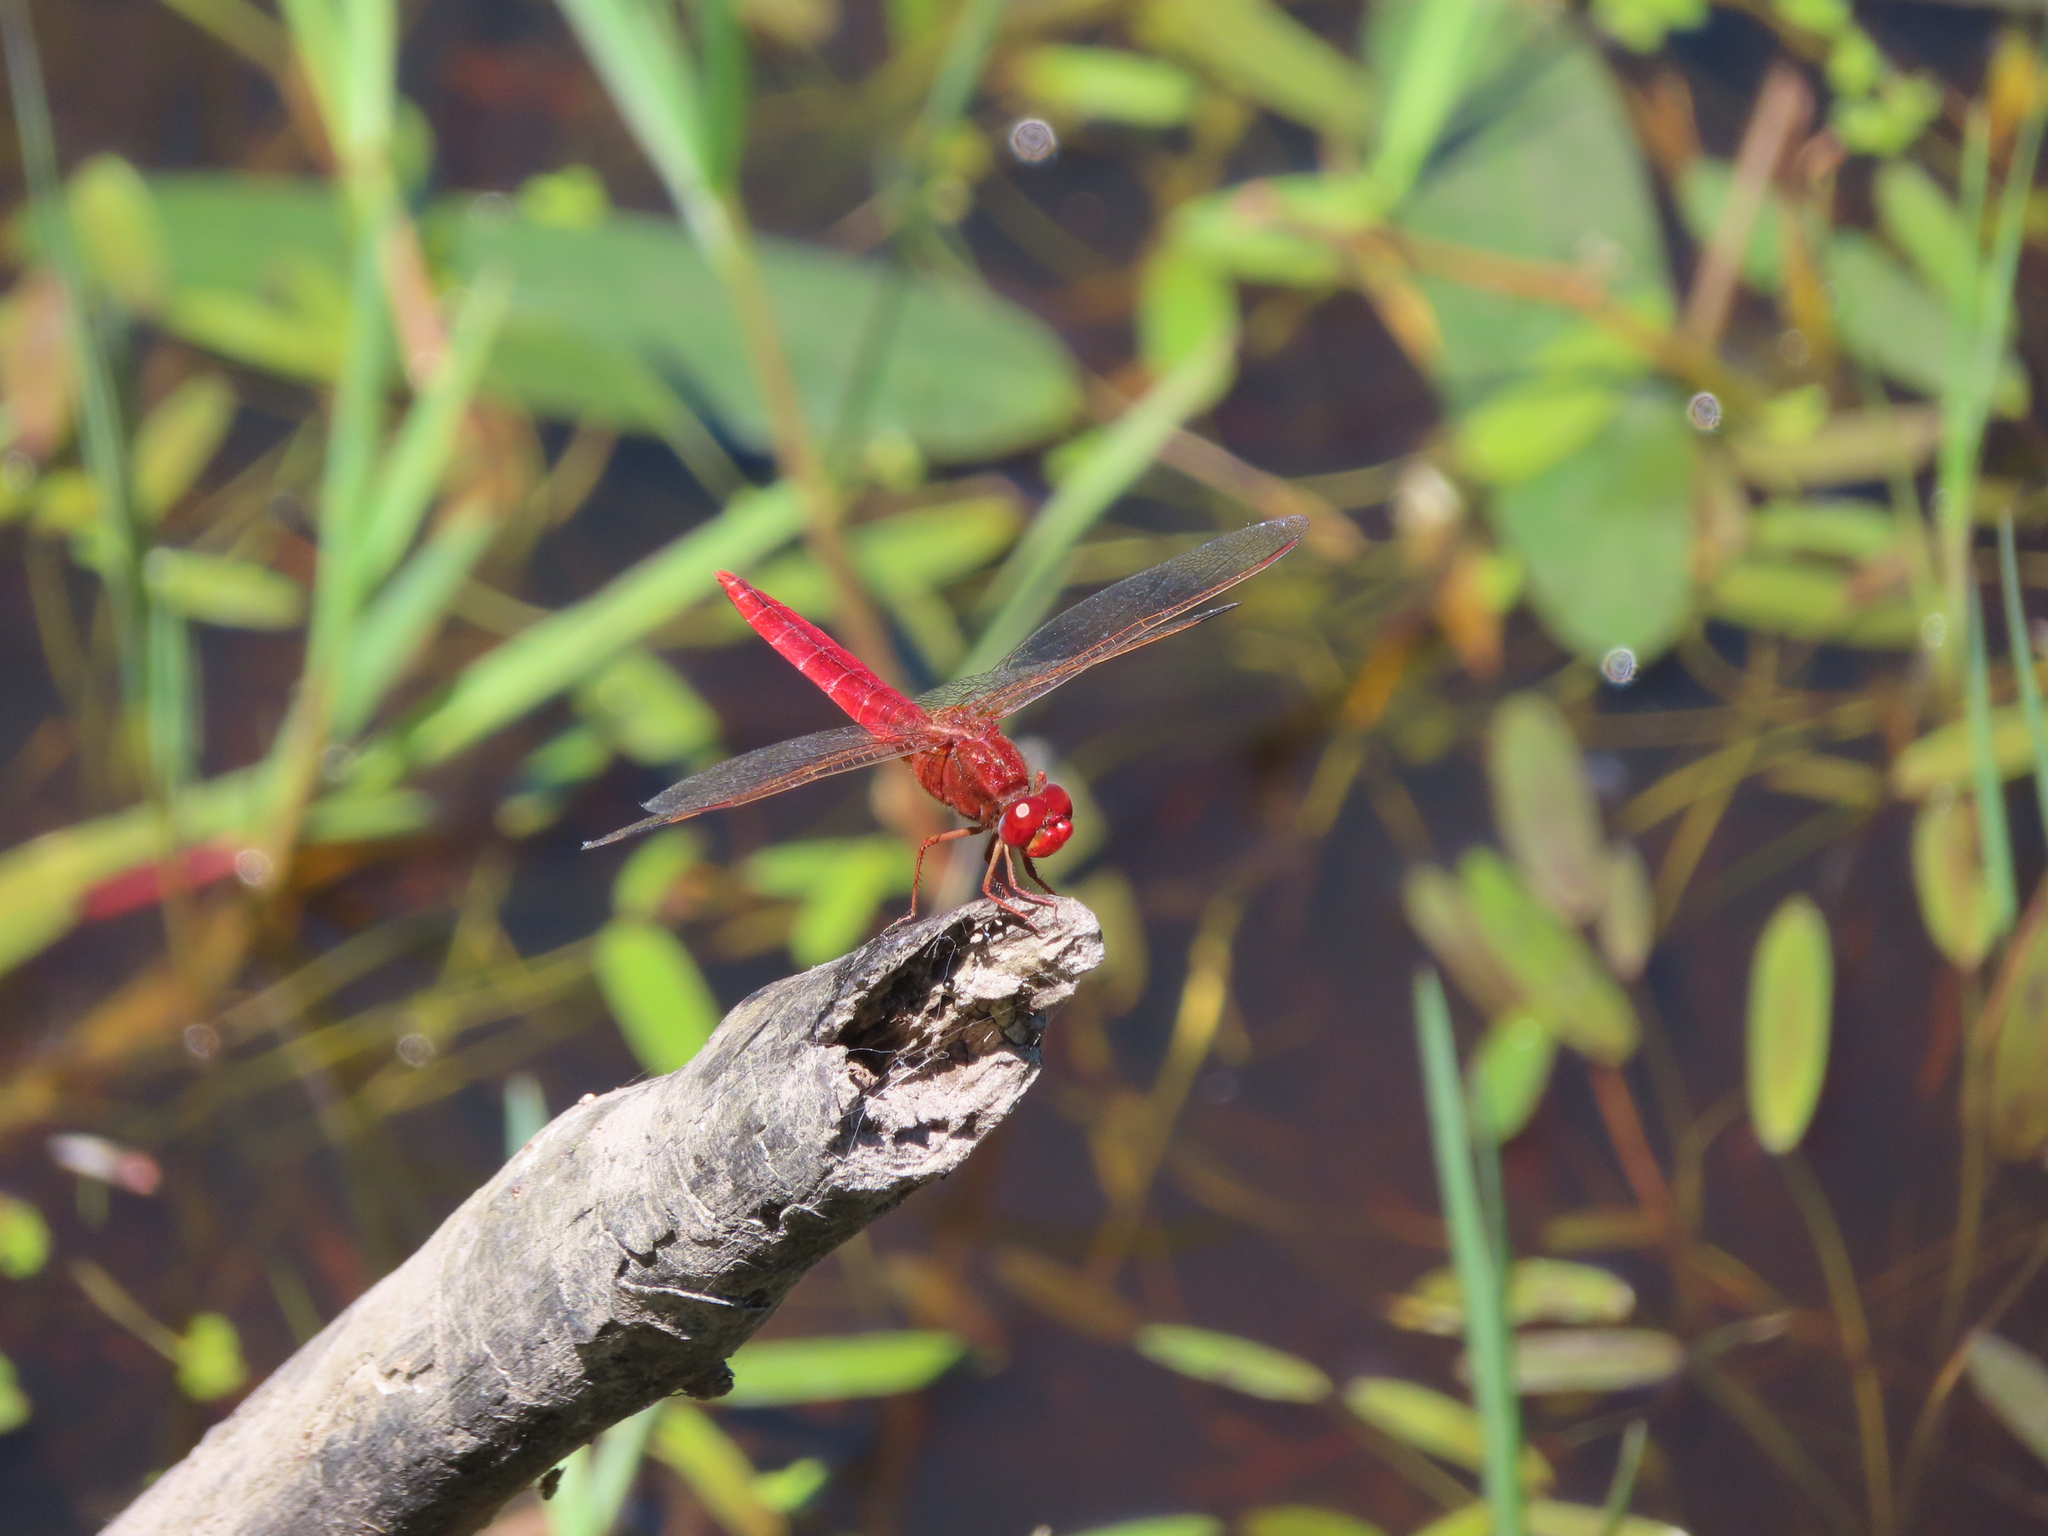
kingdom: Animalia
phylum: Arthropoda
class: Insecta
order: Odonata
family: Libellulidae
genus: Crocothemis
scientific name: Crocothemis erythraea
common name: Scarlet dragonfly
